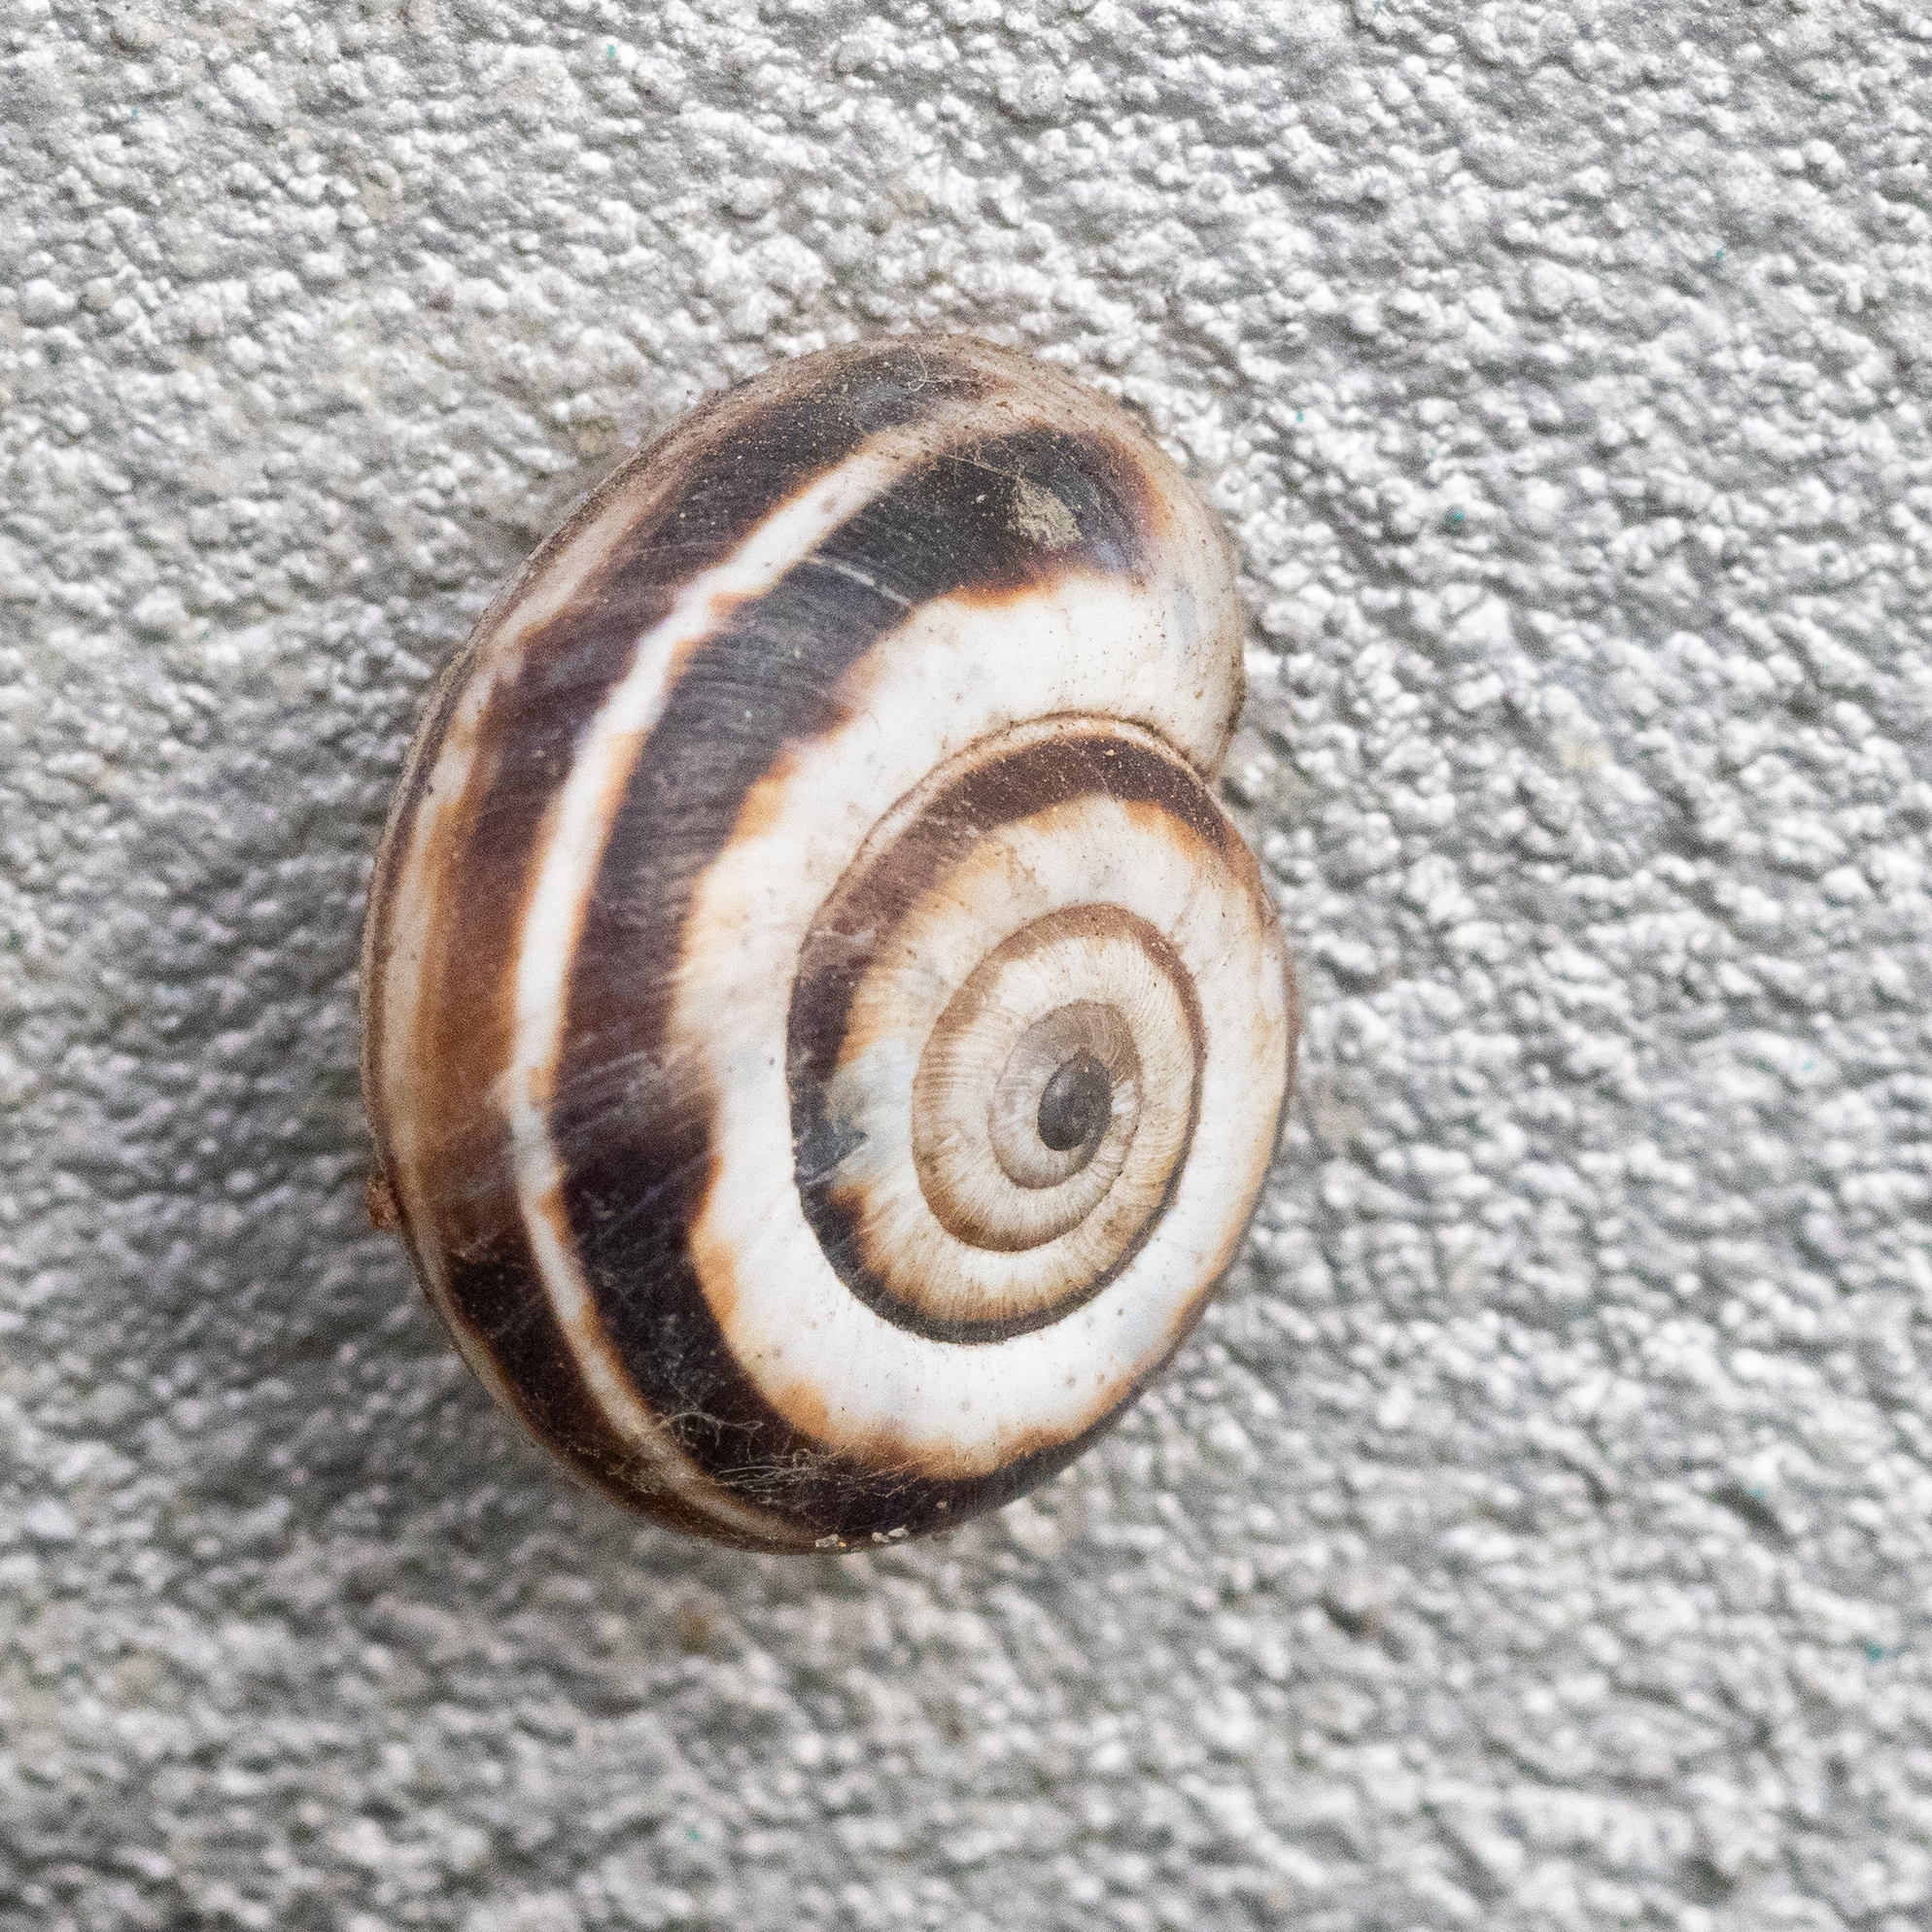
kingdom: Animalia
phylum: Mollusca
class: Gastropoda
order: Stylommatophora
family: Geomitridae
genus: Xerolenta
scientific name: Xerolenta obvia
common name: White heath snail
